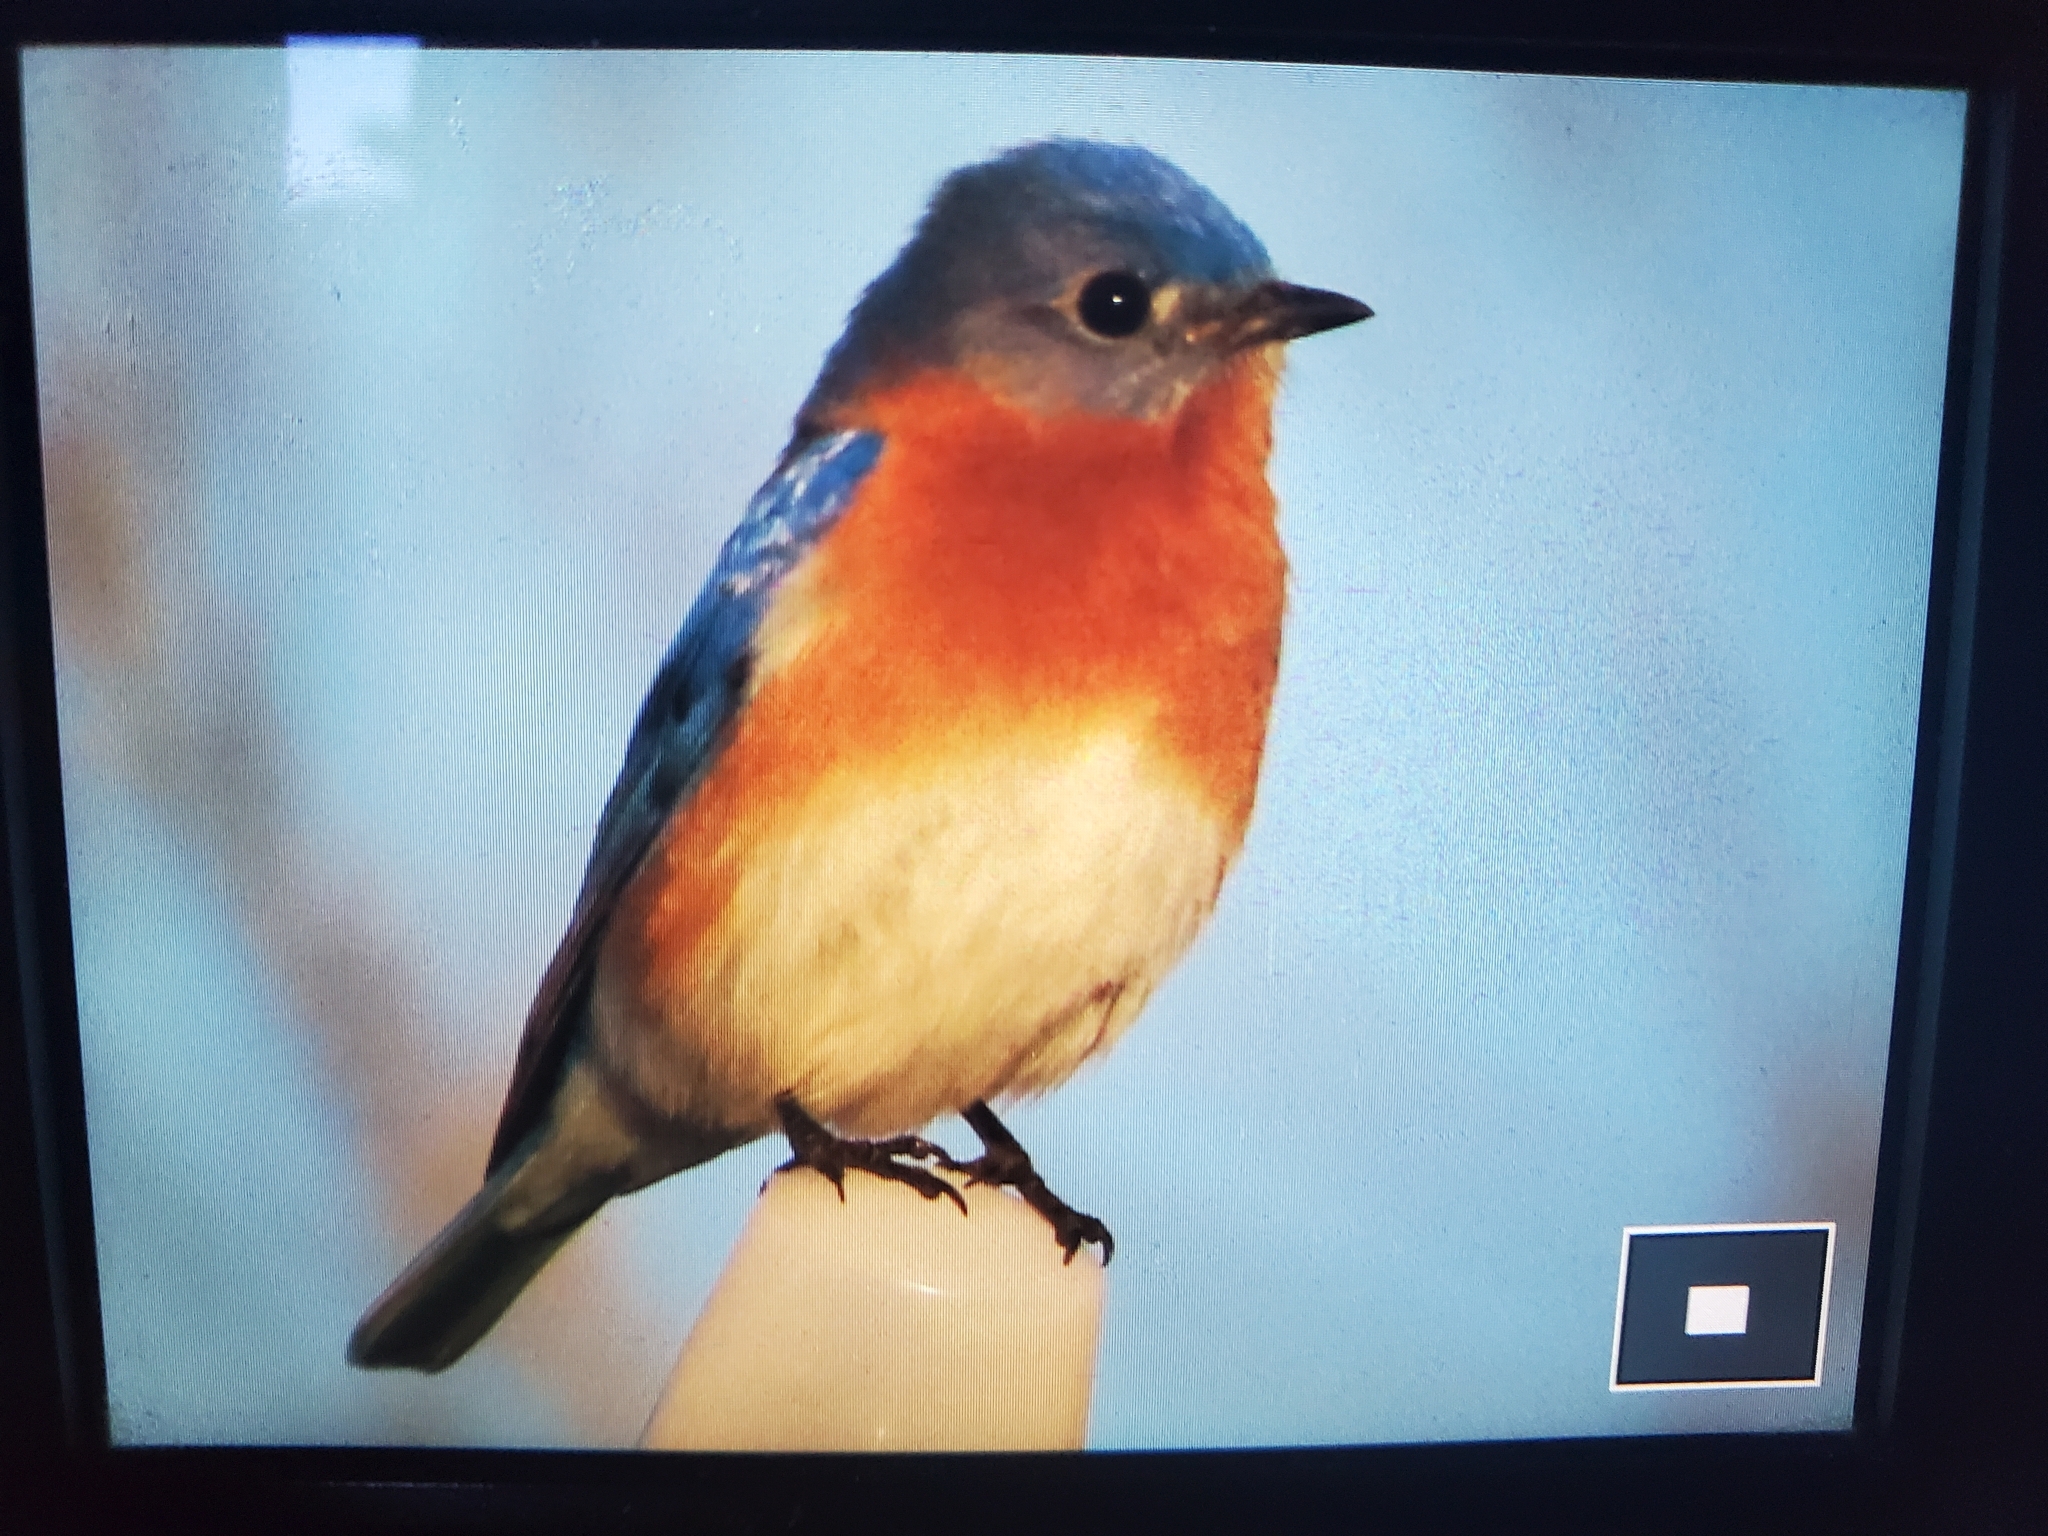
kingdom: Animalia
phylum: Chordata
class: Aves
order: Passeriformes
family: Turdidae
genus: Sialia
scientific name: Sialia sialis
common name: Eastern bluebird
